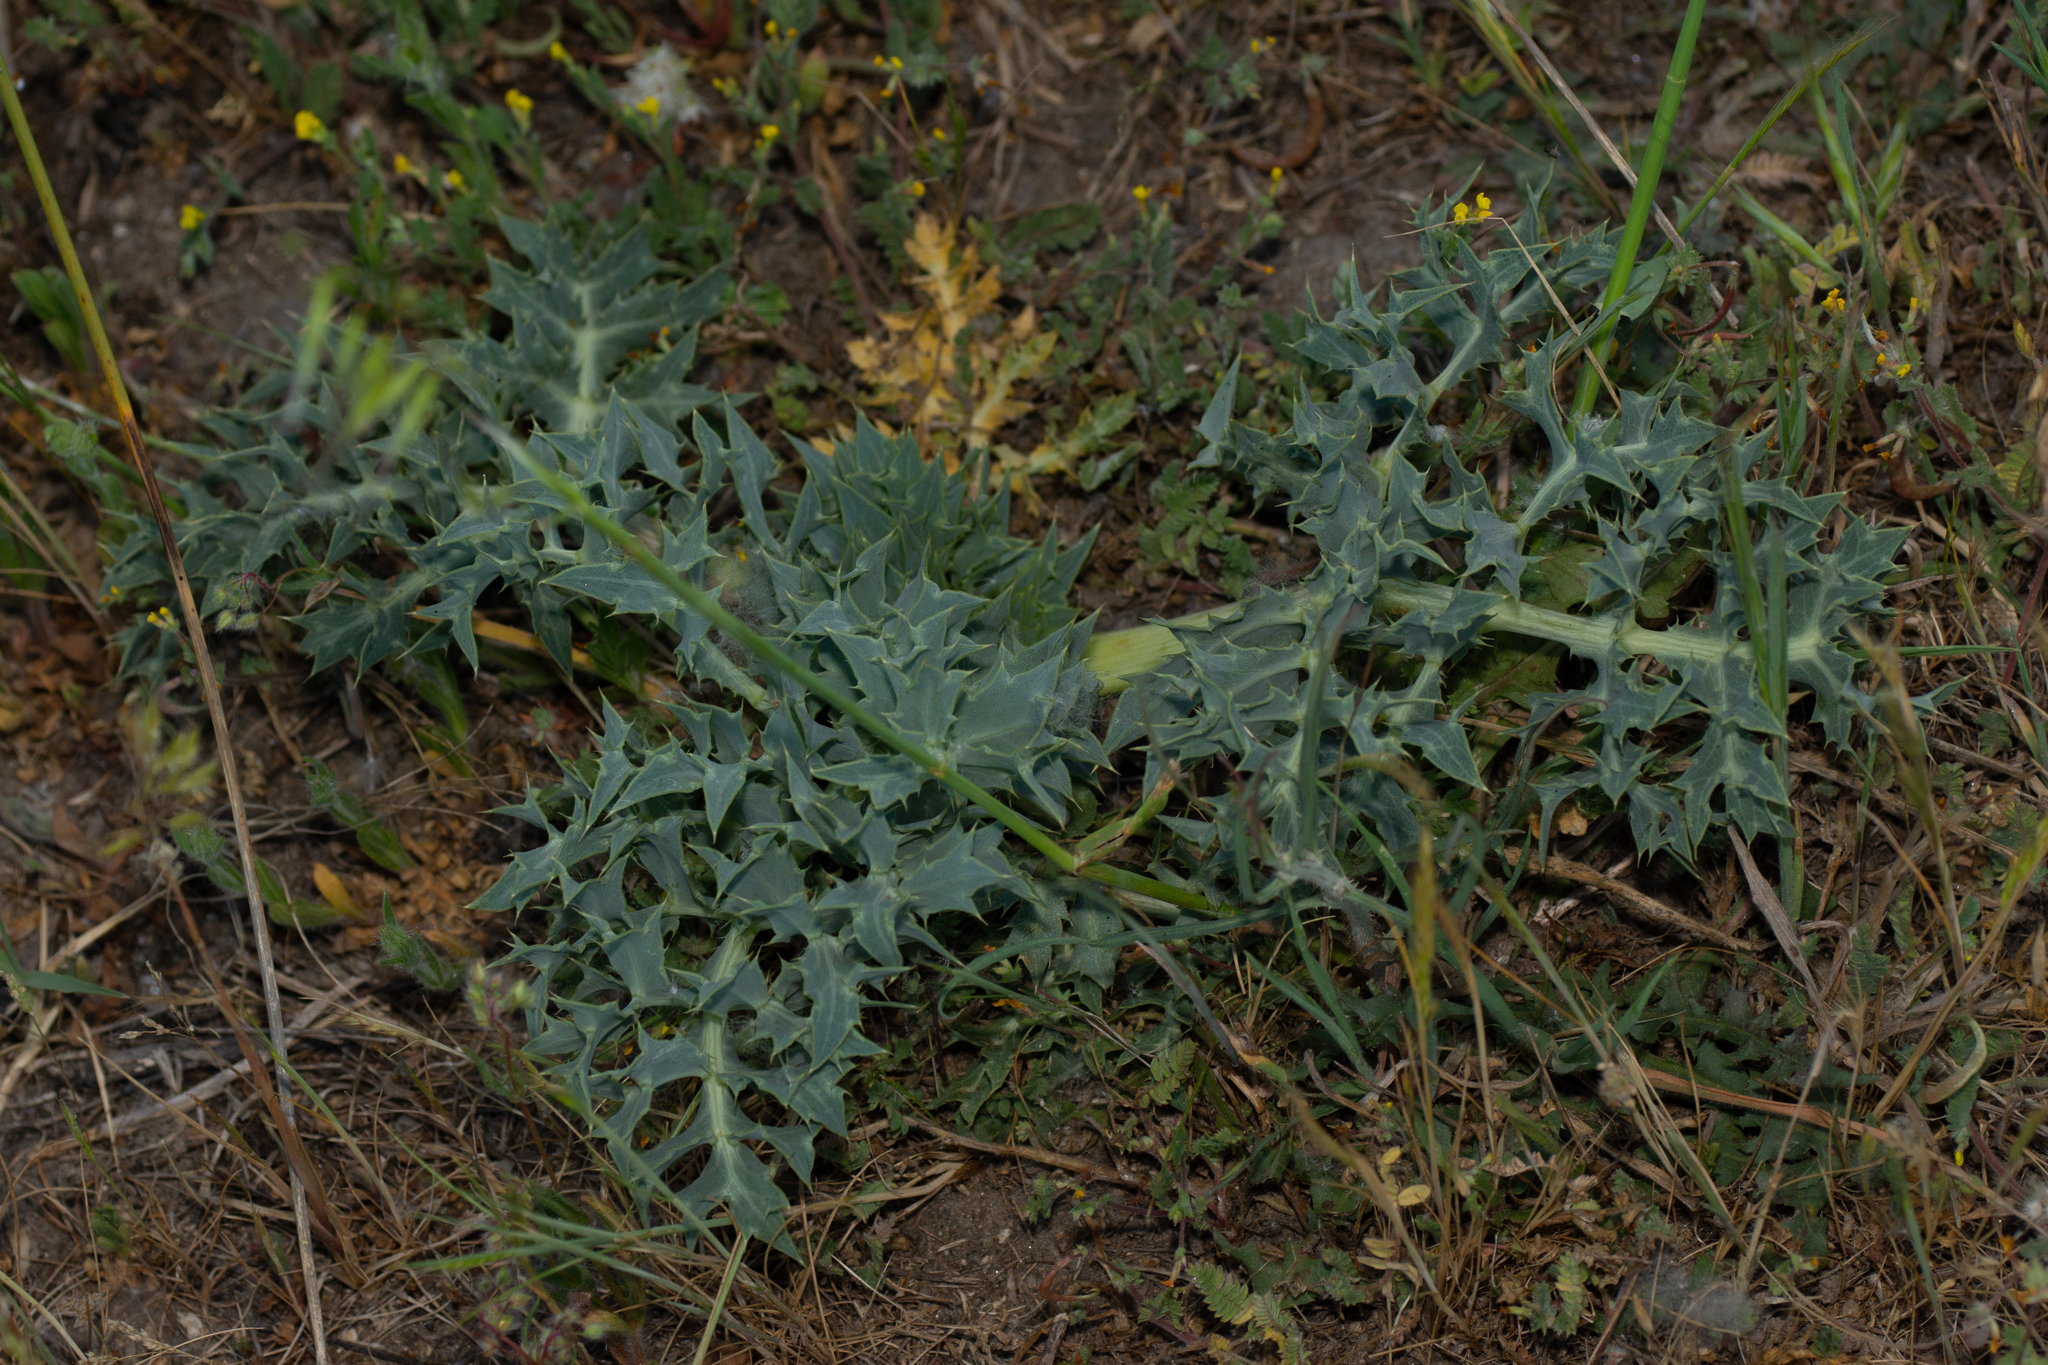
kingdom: Plantae
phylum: Tracheophyta
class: Magnoliopsida
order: Apiales
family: Apiaceae
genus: Eryngium
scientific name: Eryngium campestre
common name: Field eryngo
